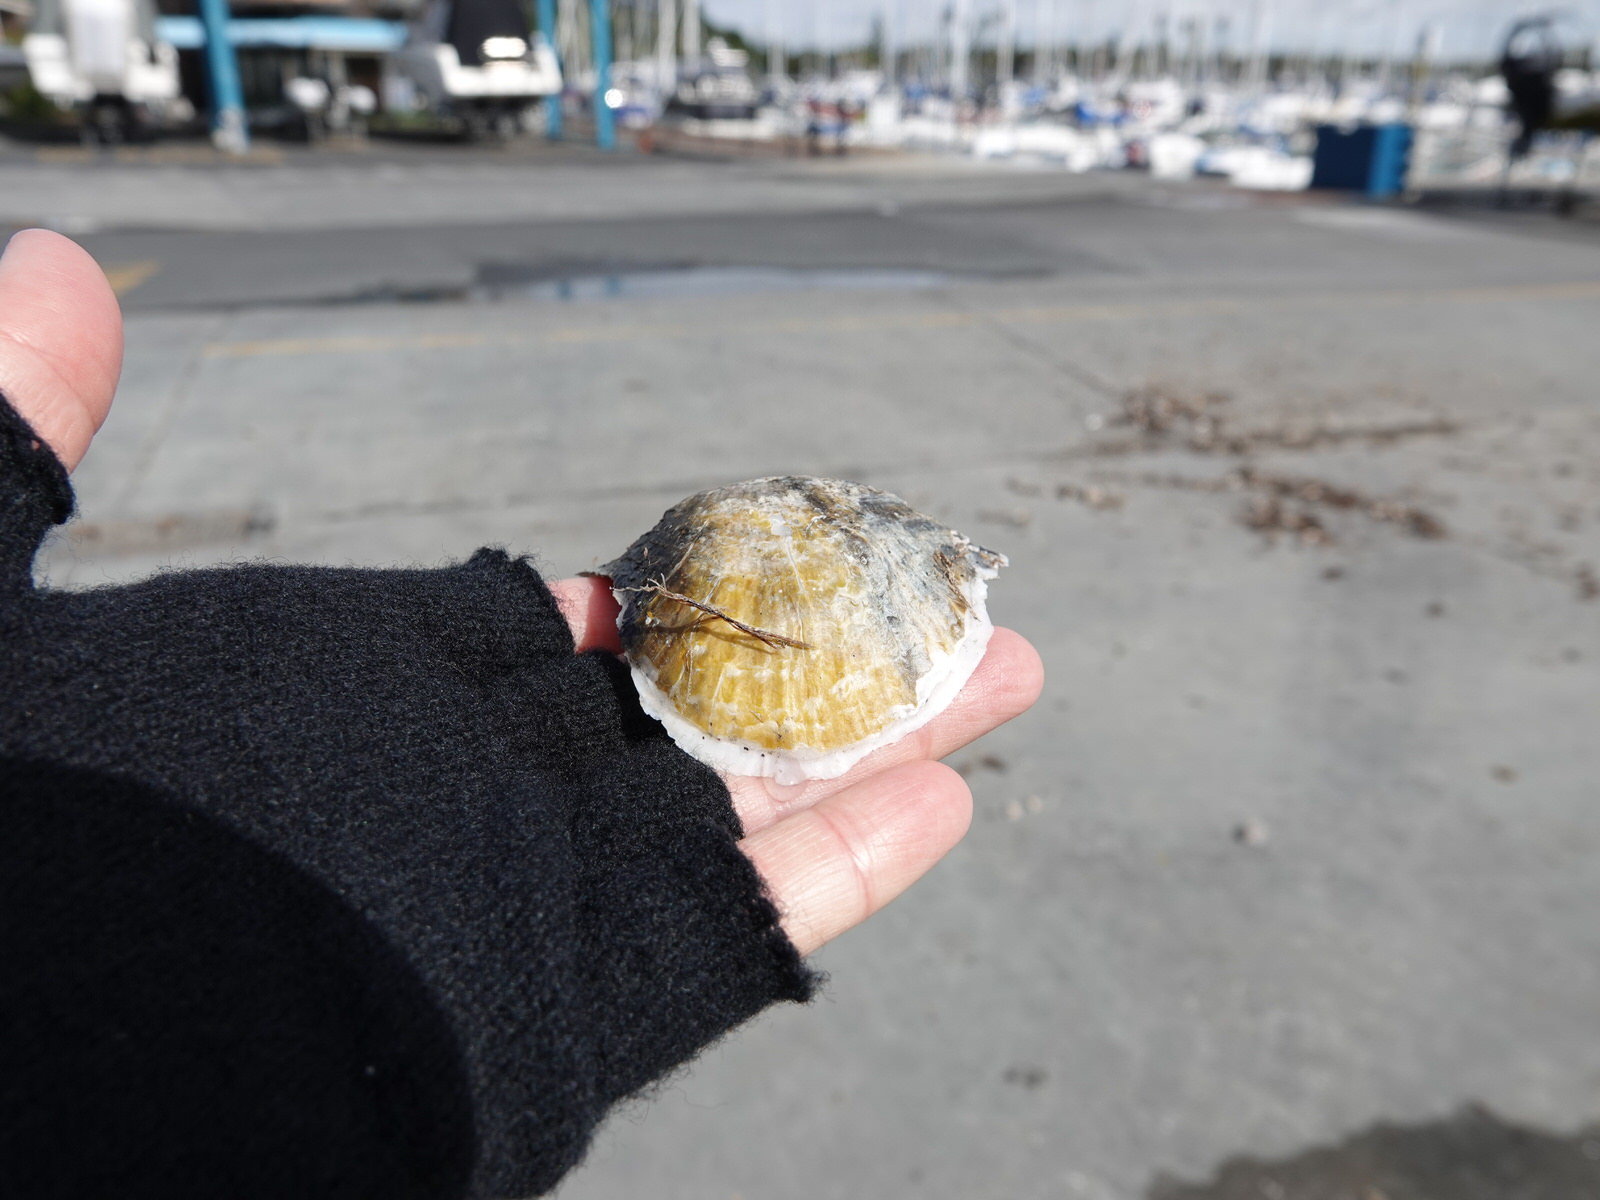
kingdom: Animalia
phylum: Mollusca
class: Bivalvia
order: Ostreida
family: Ostreidae
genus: Magallana
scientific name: Magallana gigas
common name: Pacific oyster
